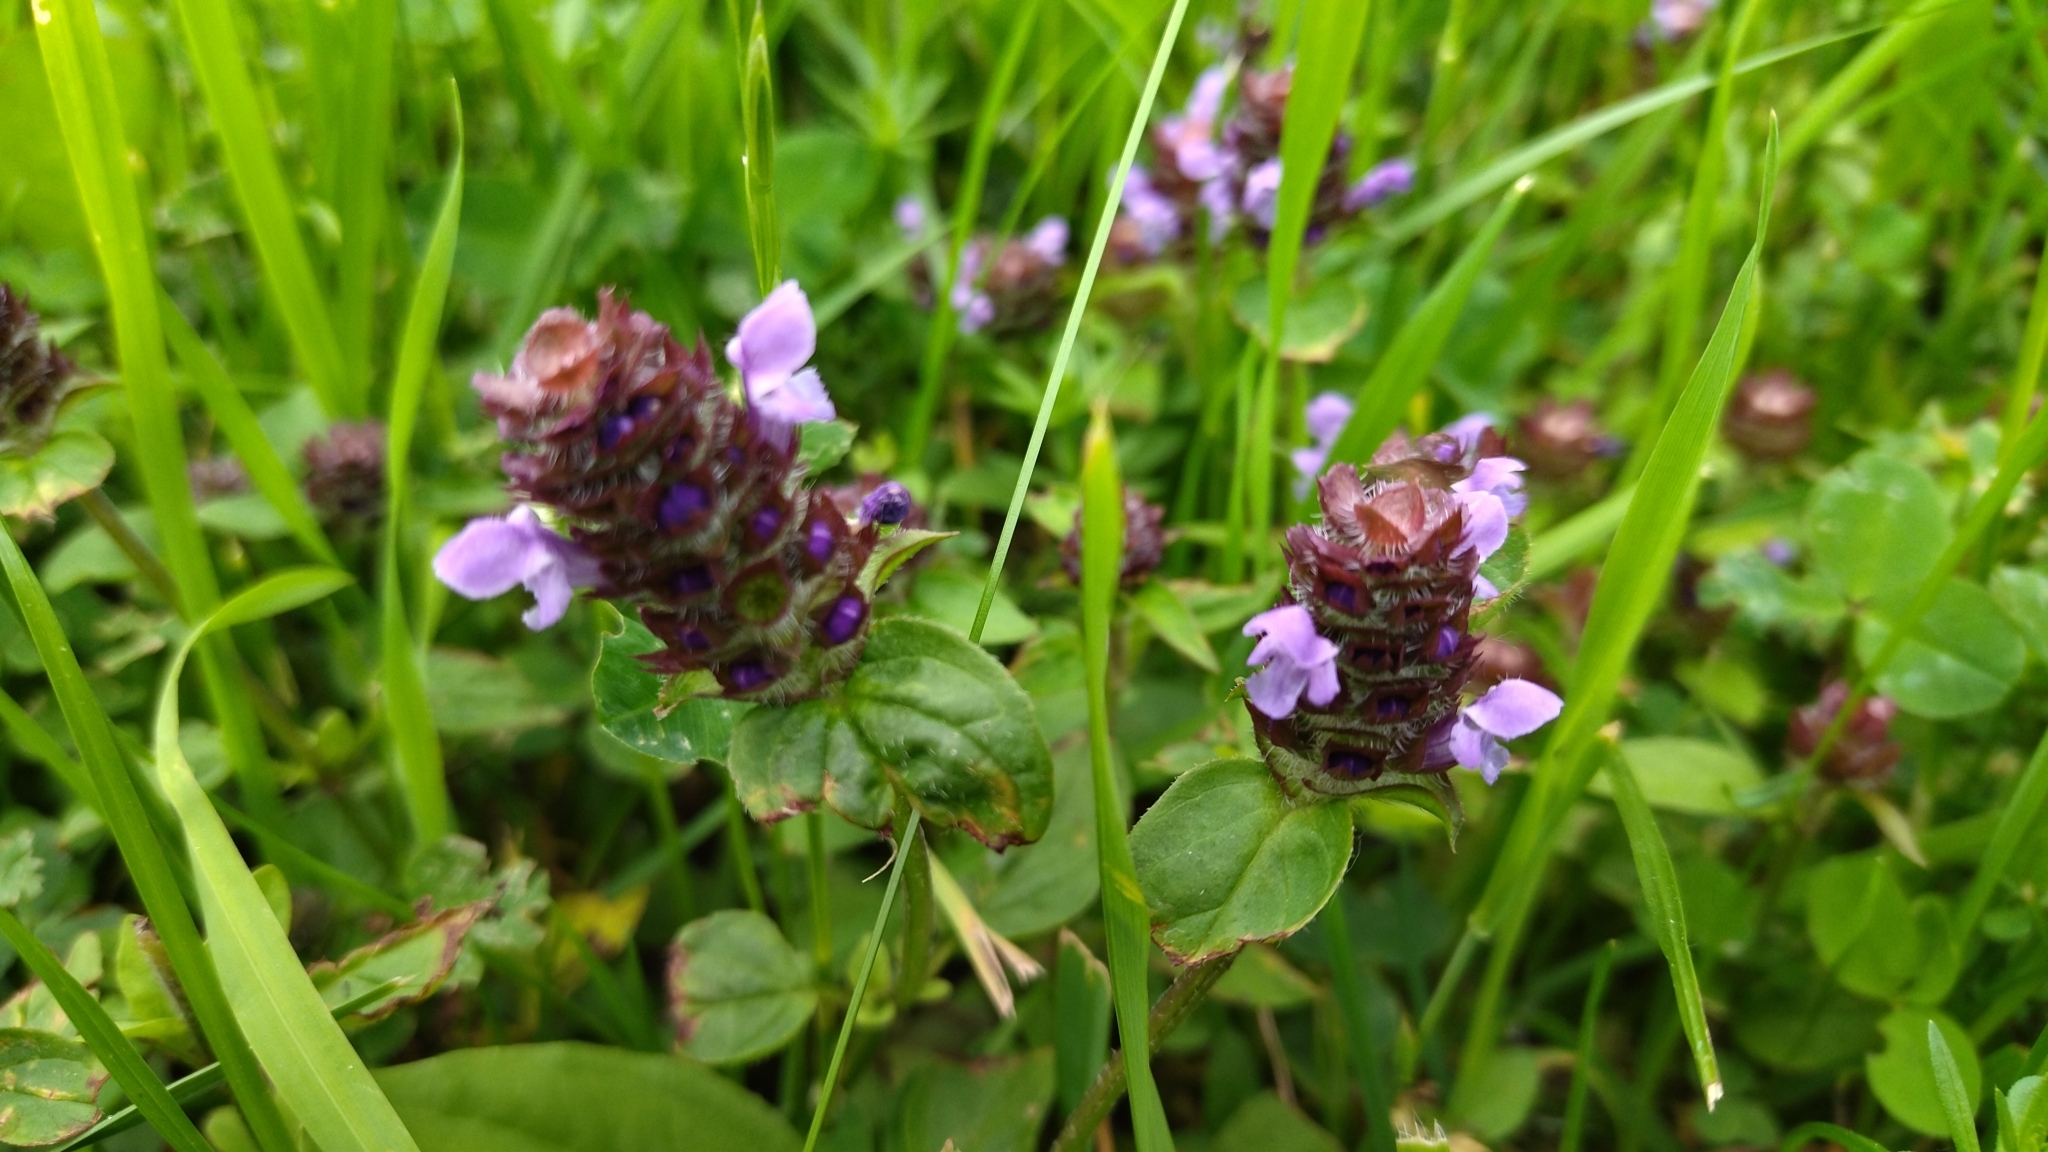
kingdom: Plantae
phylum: Tracheophyta
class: Magnoliopsida
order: Lamiales
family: Lamiaceae
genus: Prunella
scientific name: Prunella vulgaris
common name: Heal-all
